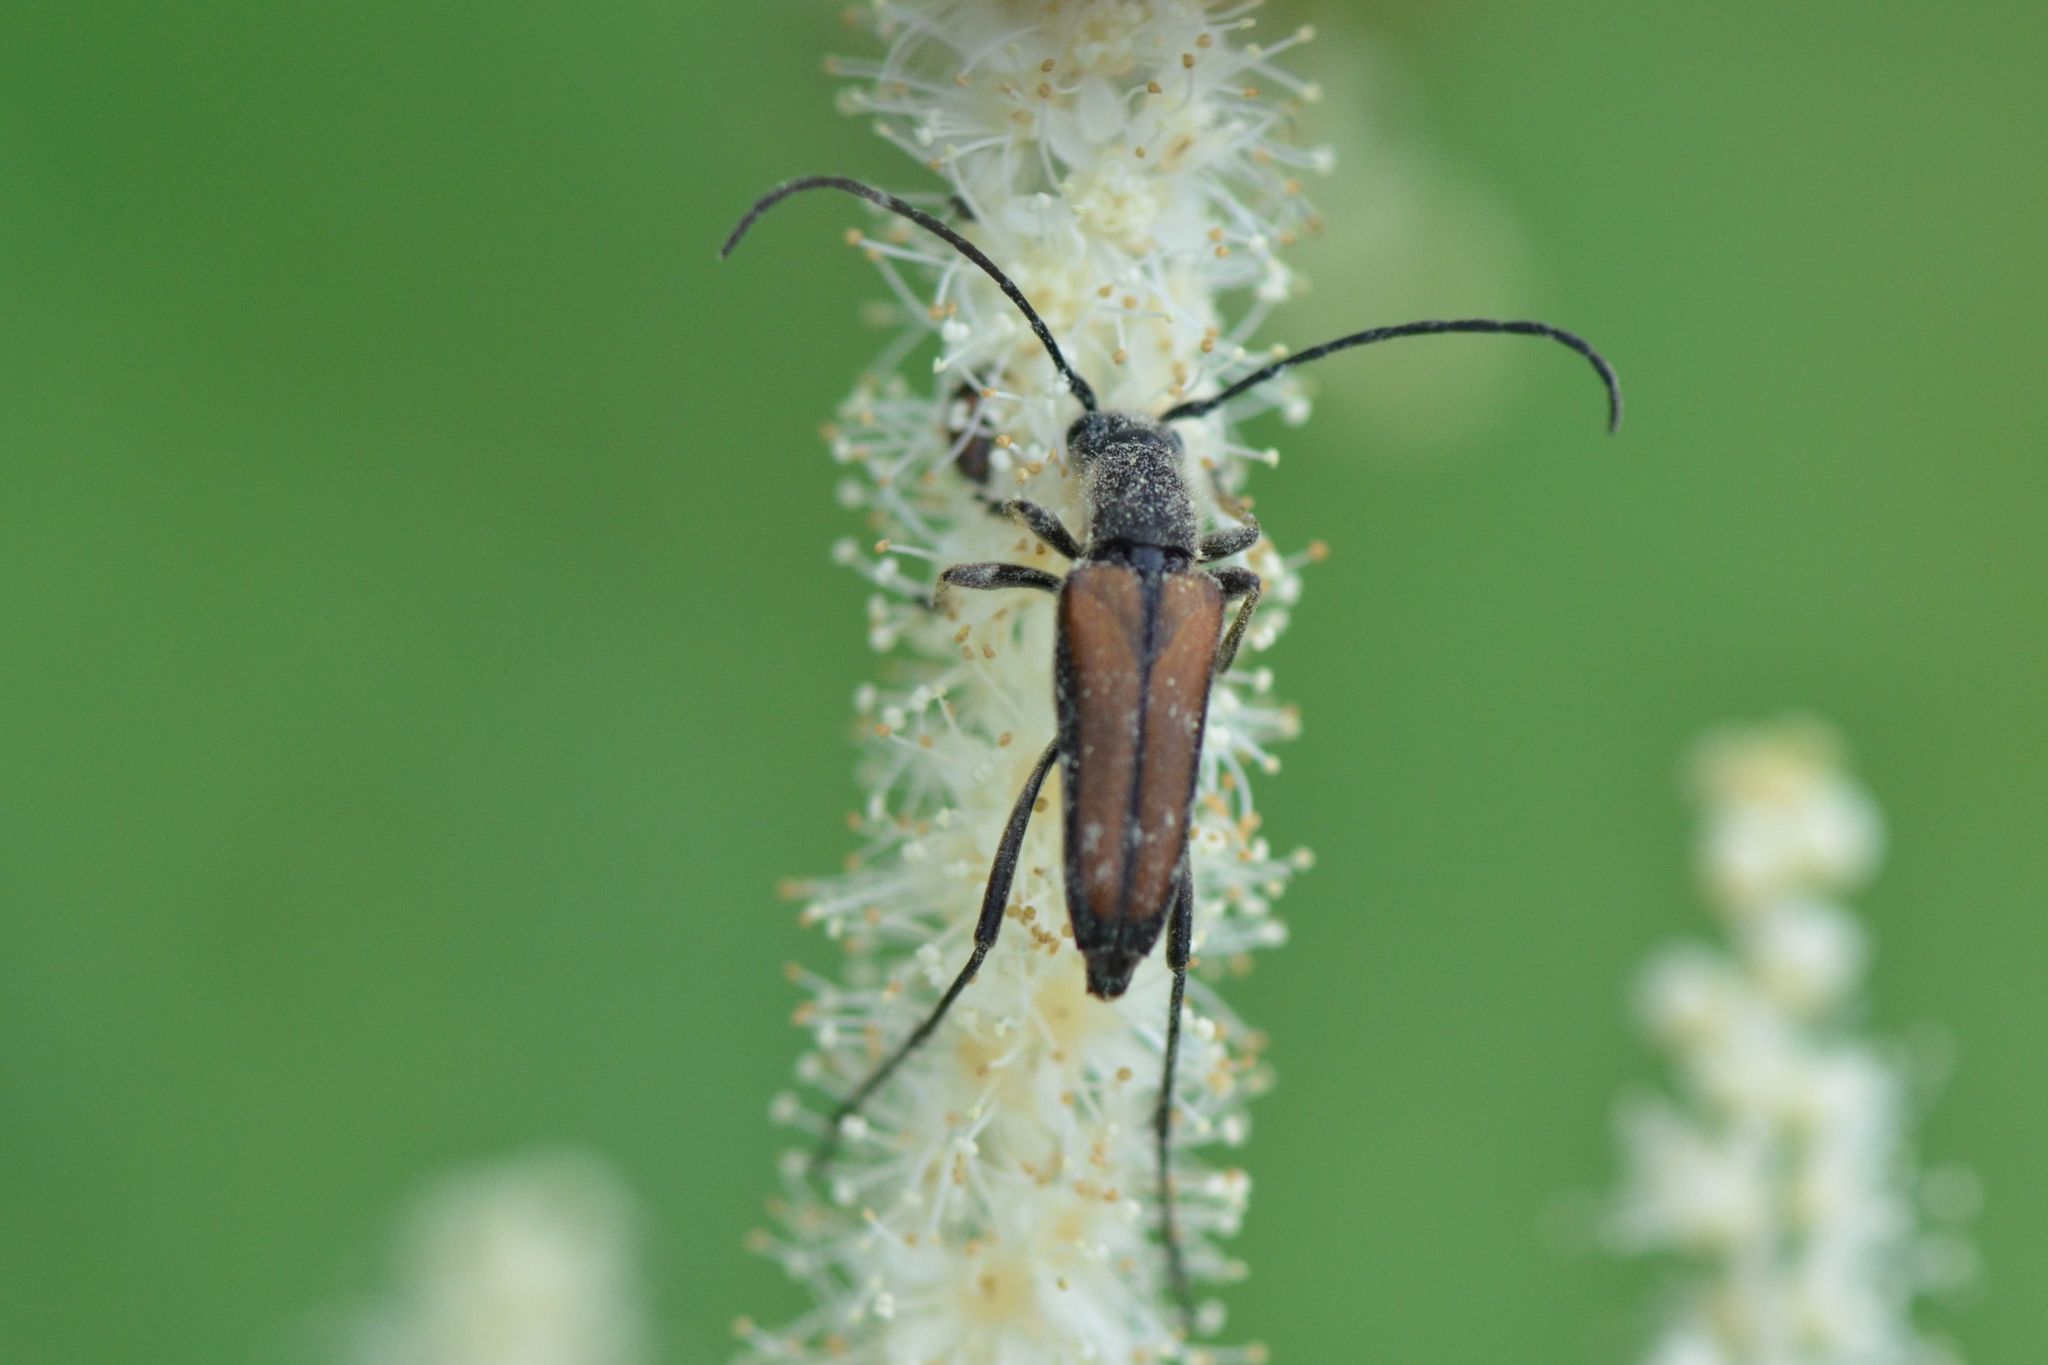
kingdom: Animalia
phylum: Arthropoda
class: Insecta
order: Coleoptera
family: Cerambycidae
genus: Anastrangalia
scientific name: Anastrangalia dubia
